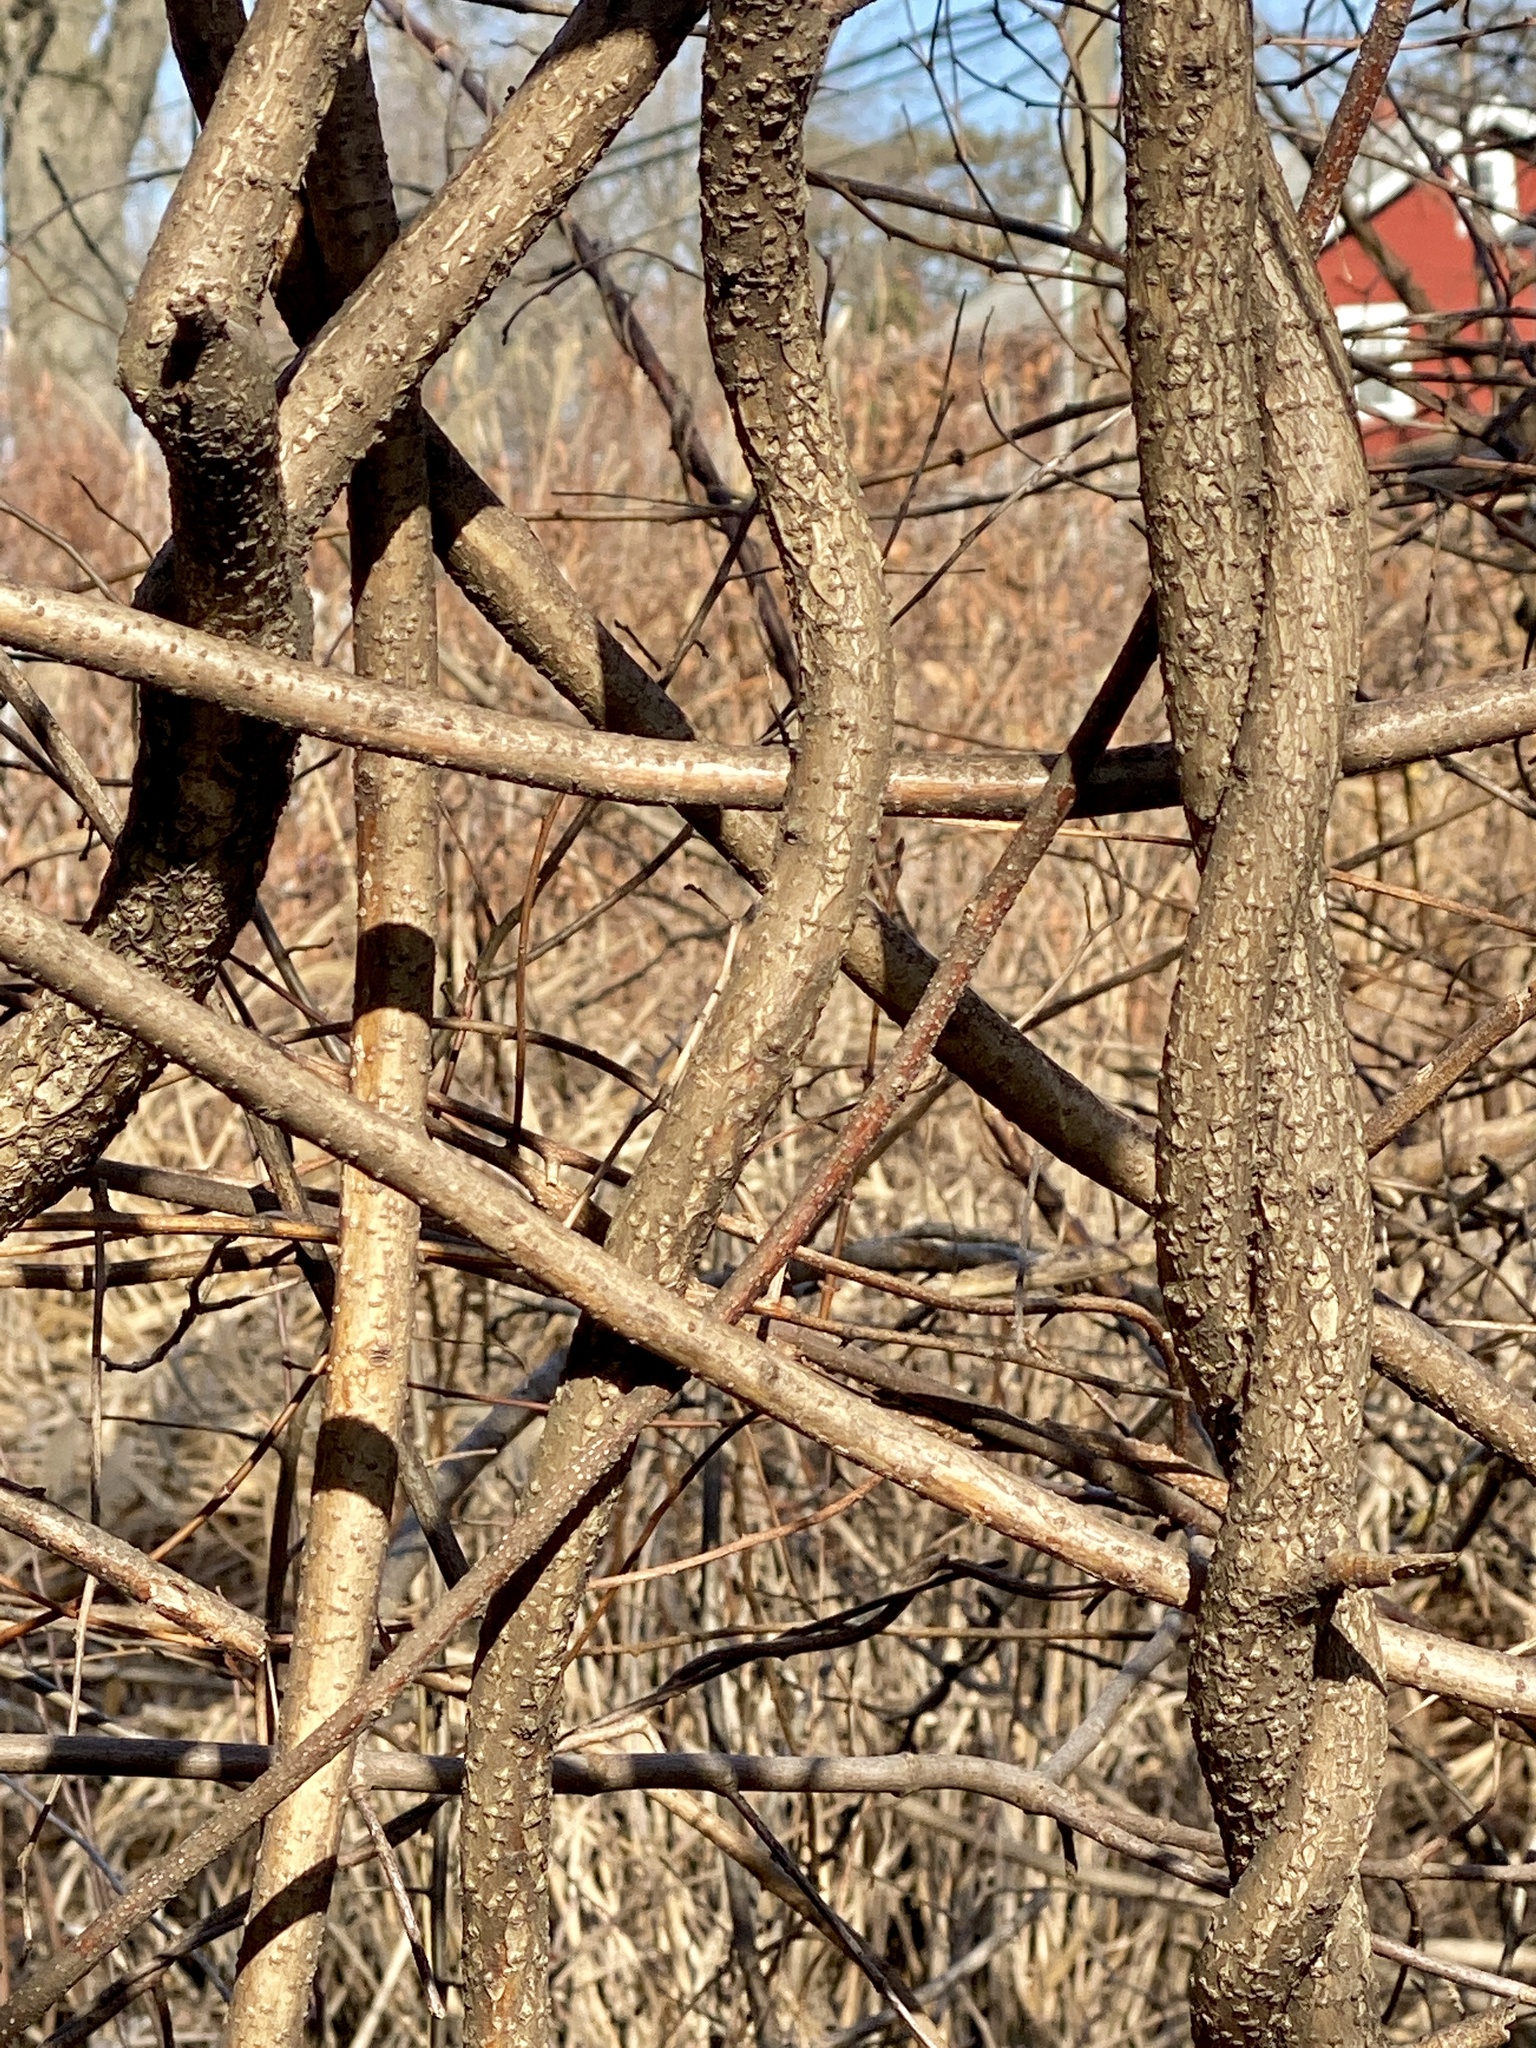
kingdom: Plantae
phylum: Tracheophyta
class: Magnoliopsida
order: Celastrales
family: Celastraceae
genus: Celastrus
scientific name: Celastrus orbiculatus
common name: Oriental bittersweet
